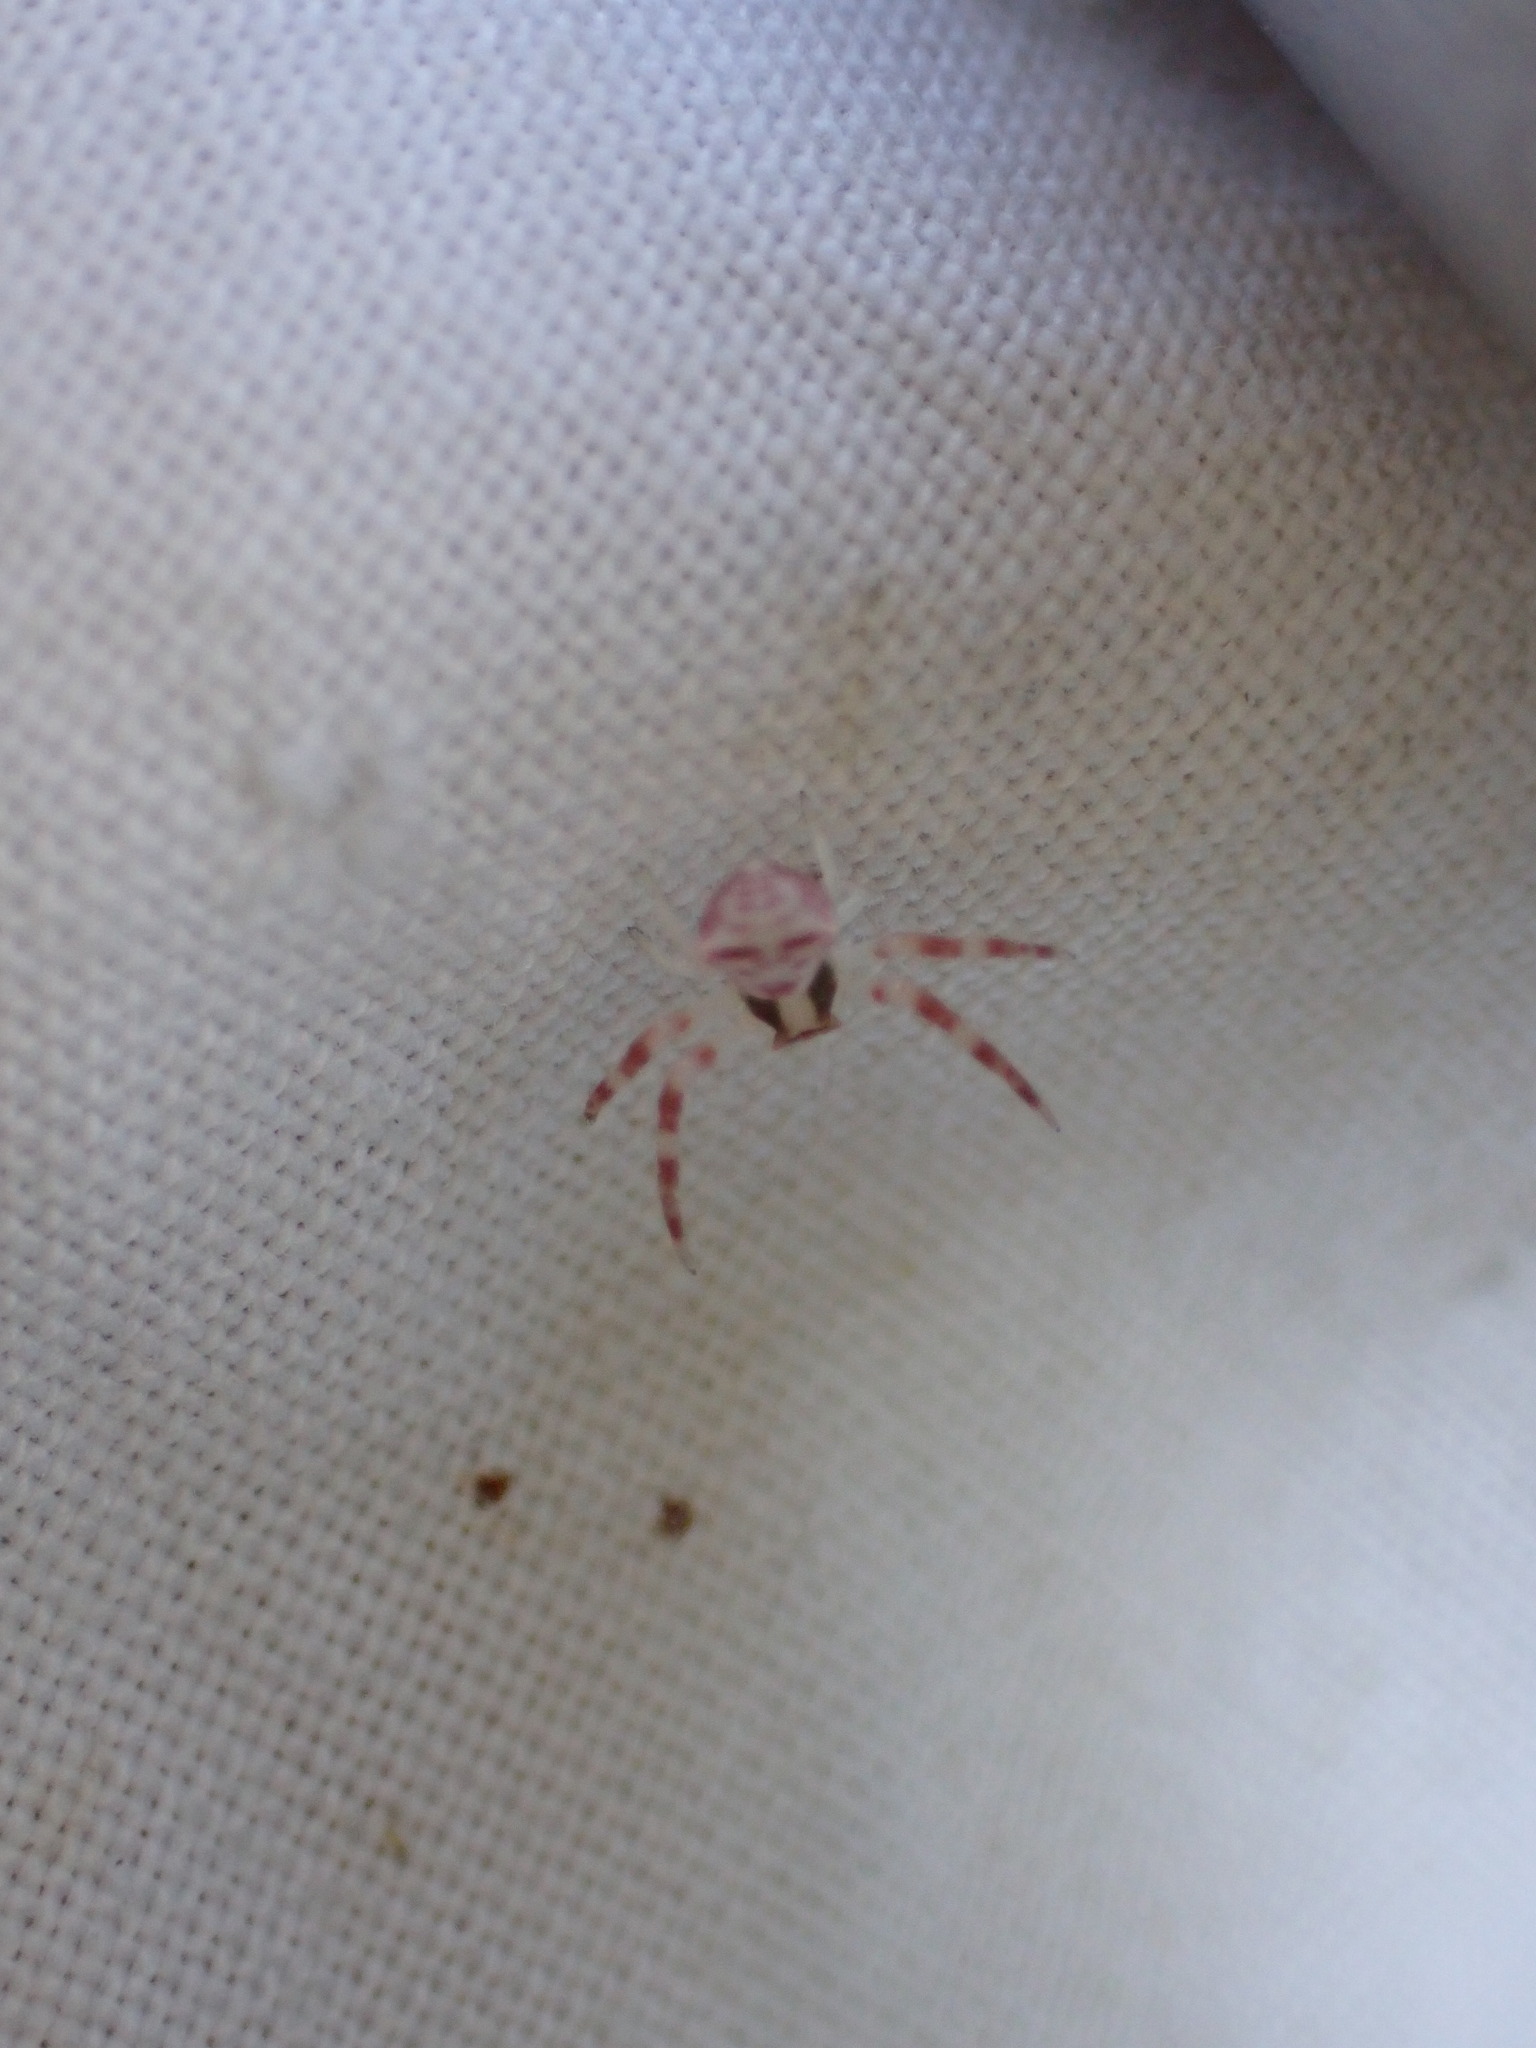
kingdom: Animalia
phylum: Arthropoda
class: Arachnida
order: Araneae
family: Thomisidae
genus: Thomisus
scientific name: Thomisus onustus
